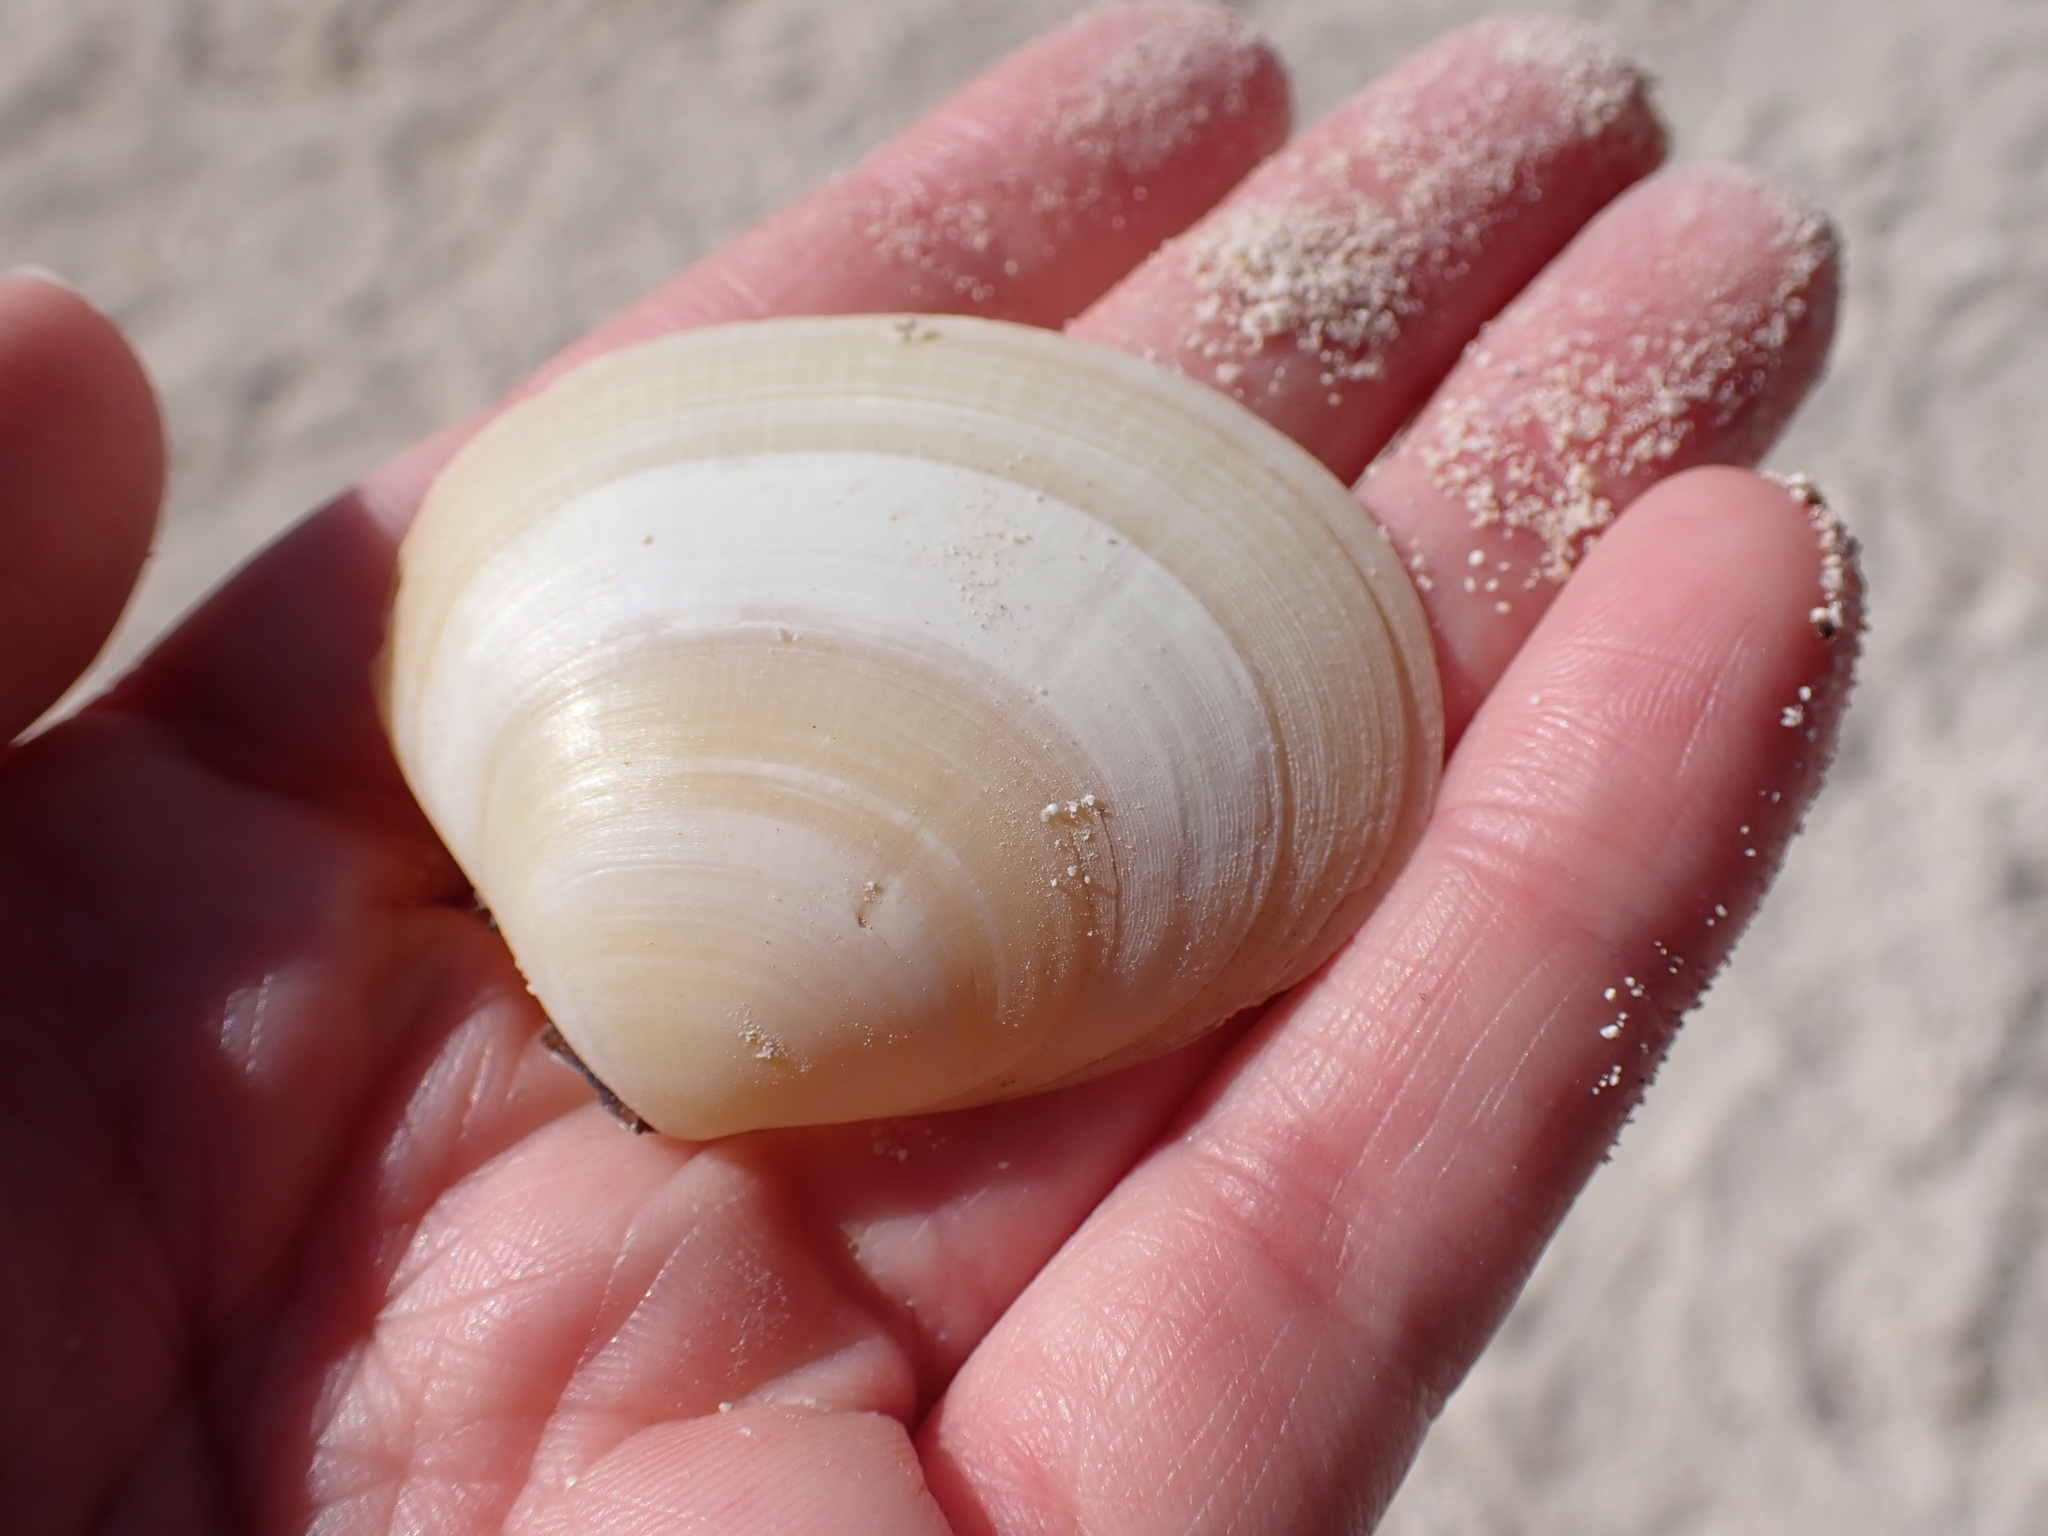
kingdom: Animalia
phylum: Mollusca
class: Bivalvia
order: Cardiida
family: Tellinidae
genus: Johnsonella
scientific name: Johnsonella fausta
